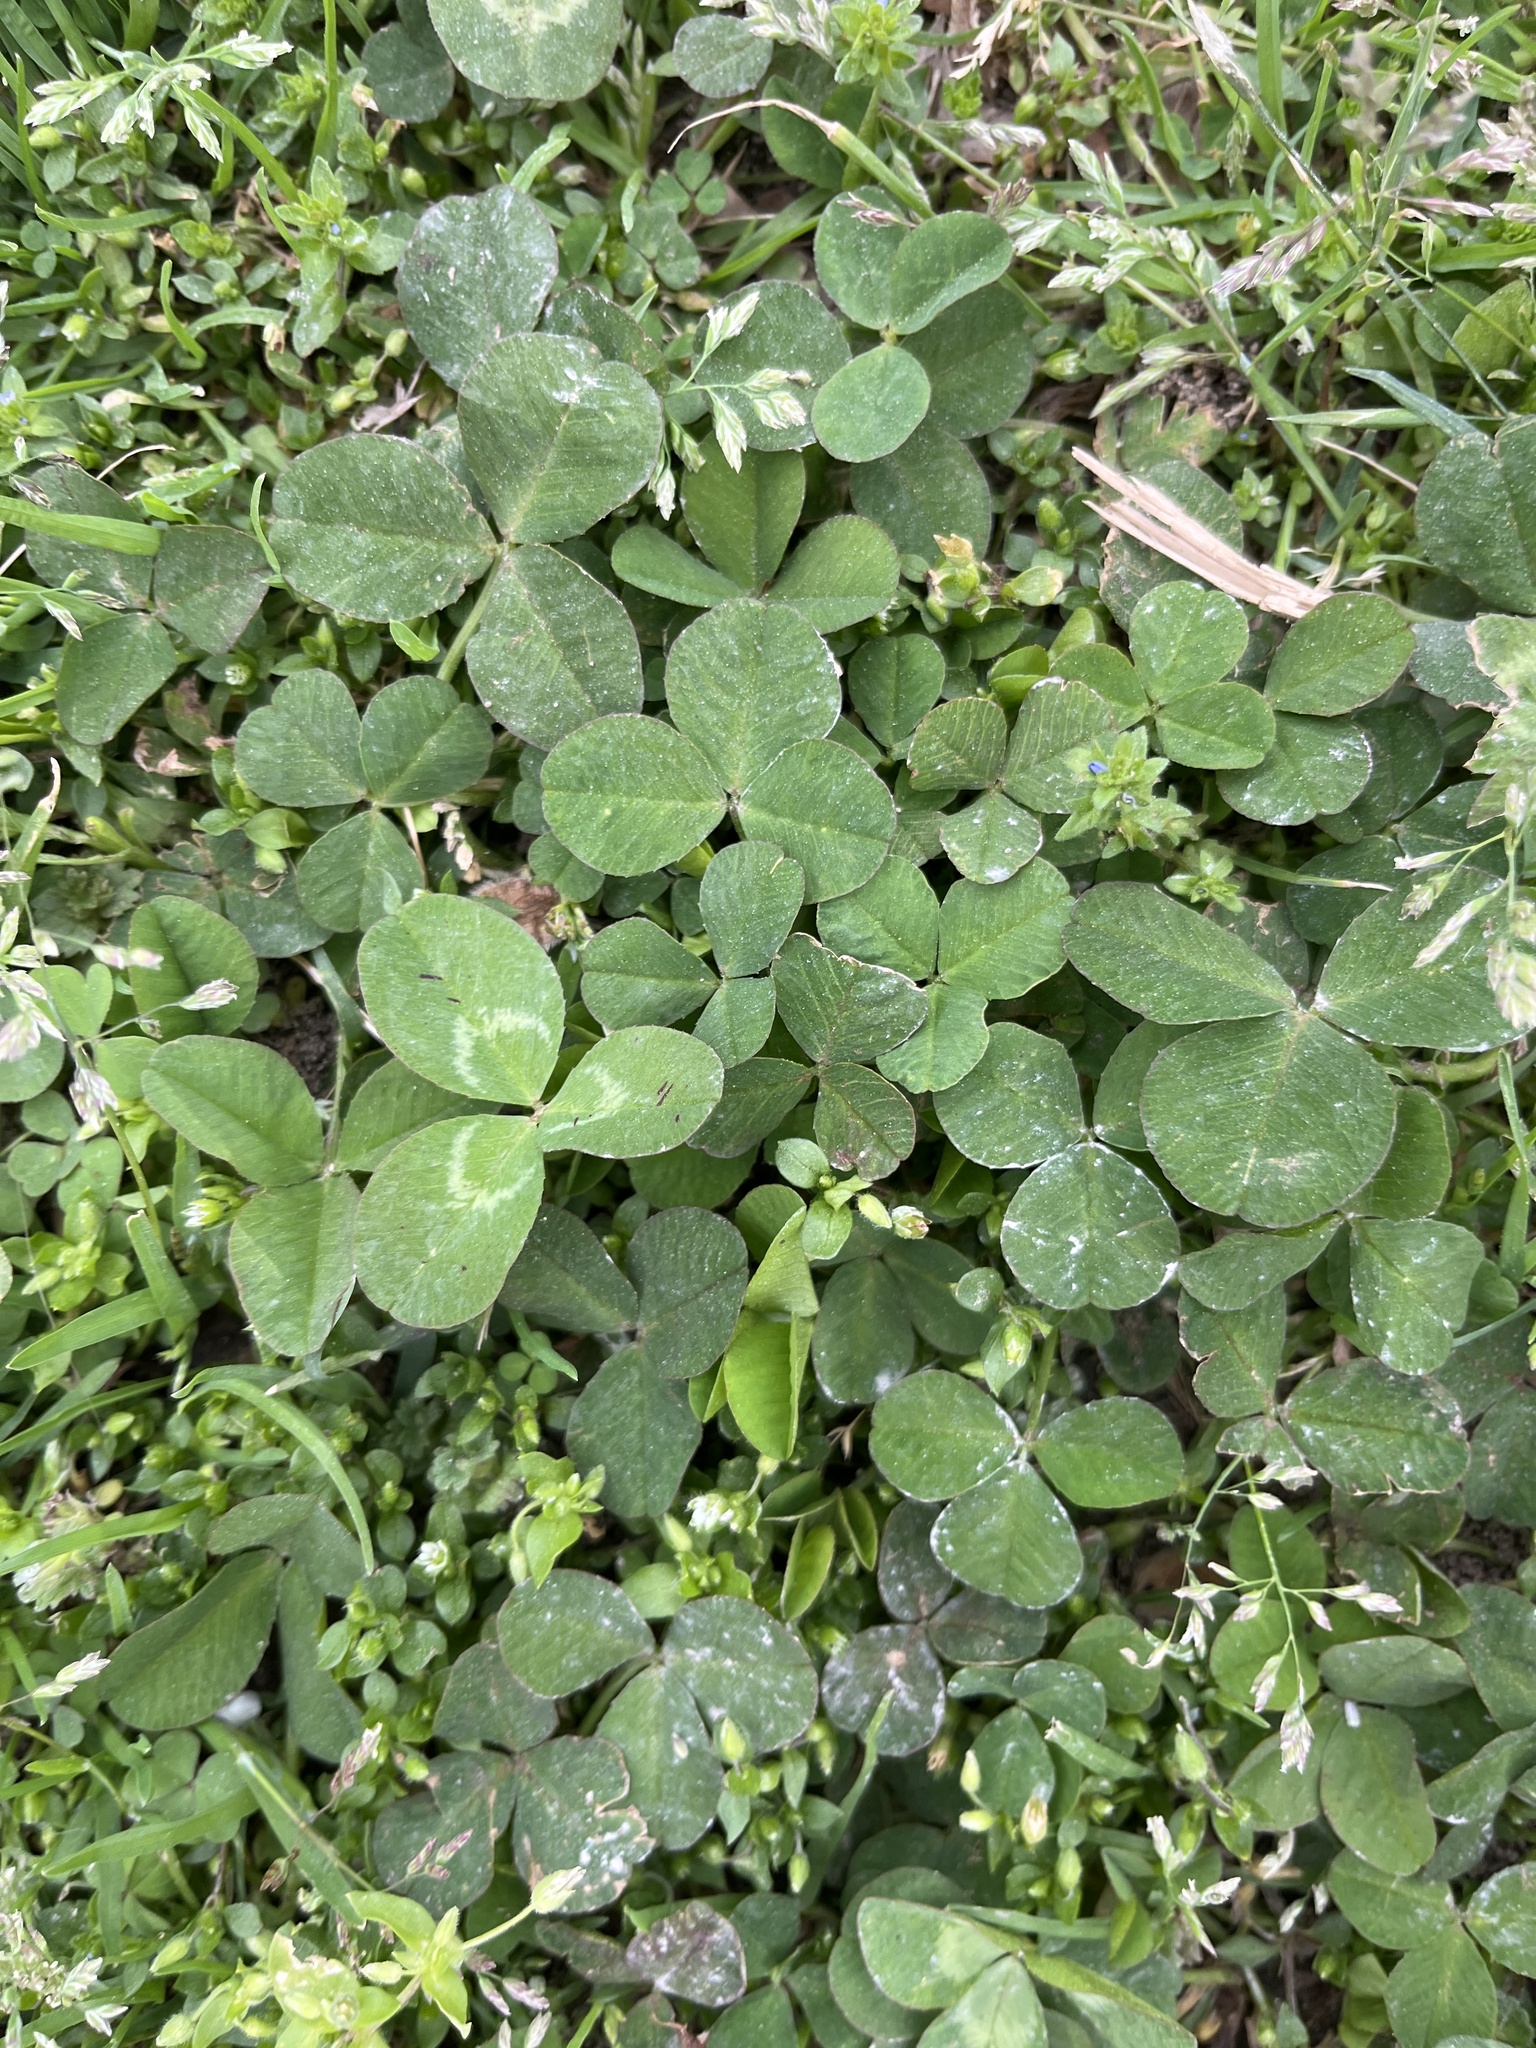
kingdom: Plantae
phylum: Tracheophyta
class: Magnoliopsida
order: Fabales
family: Fabaceae
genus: Trifolium
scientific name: Trifolium repens
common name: White clover
